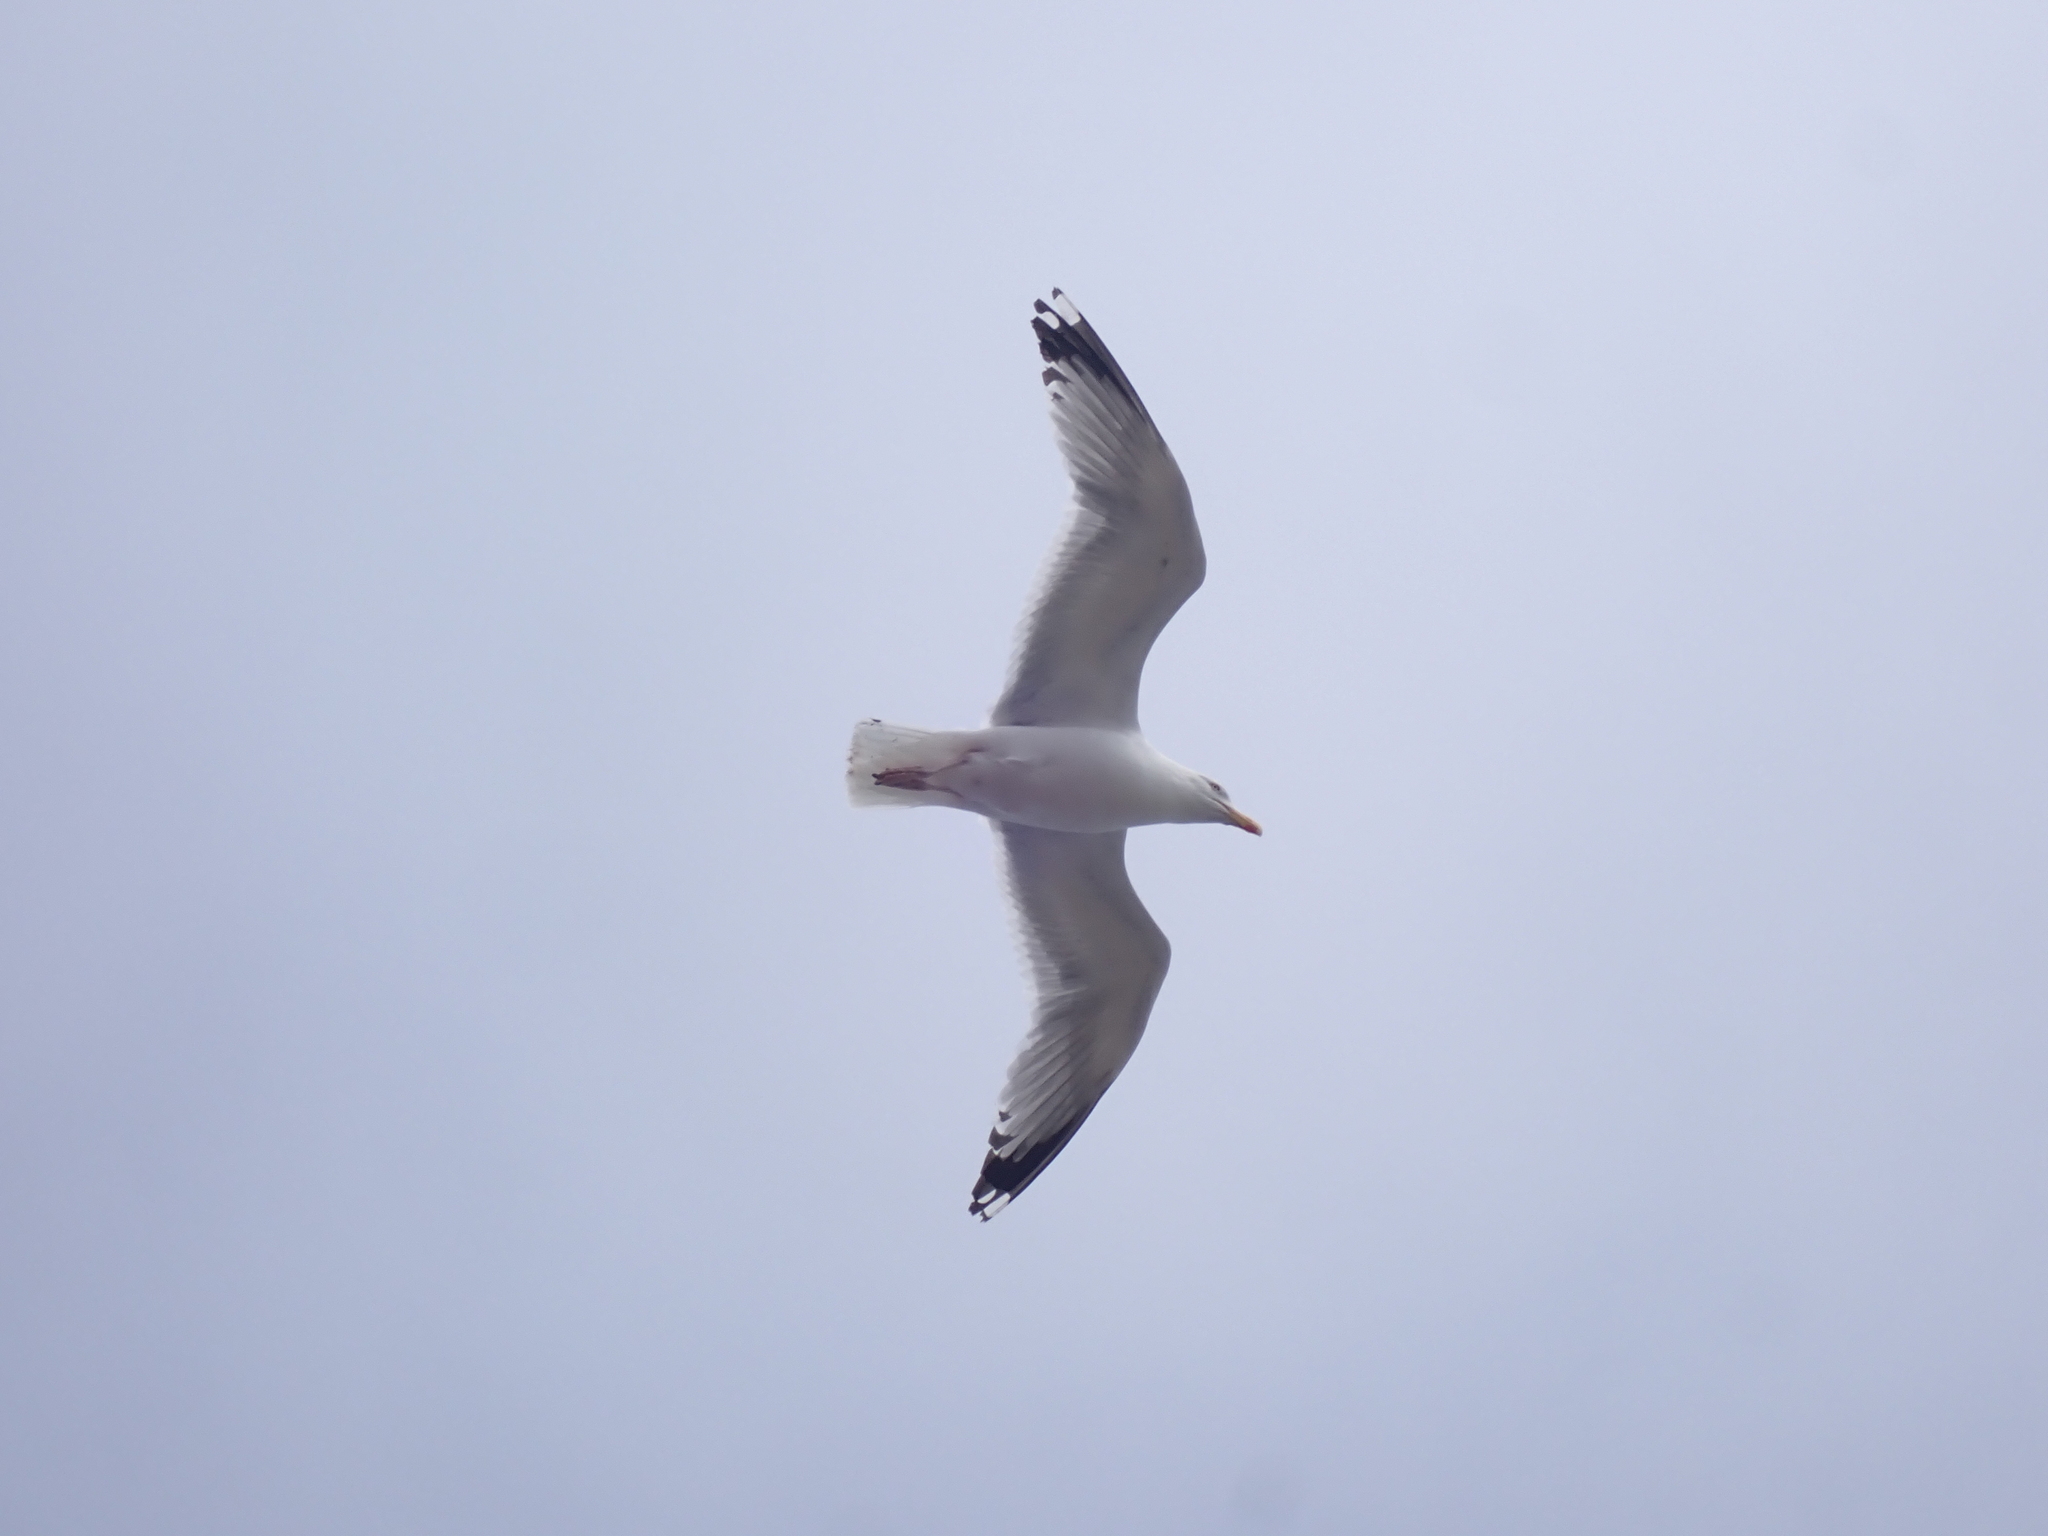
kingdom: Animalia
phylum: Chordata
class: Aves
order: Charadriiformes
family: Laridae
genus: Larus
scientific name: Larus argentatus
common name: Herring gull
